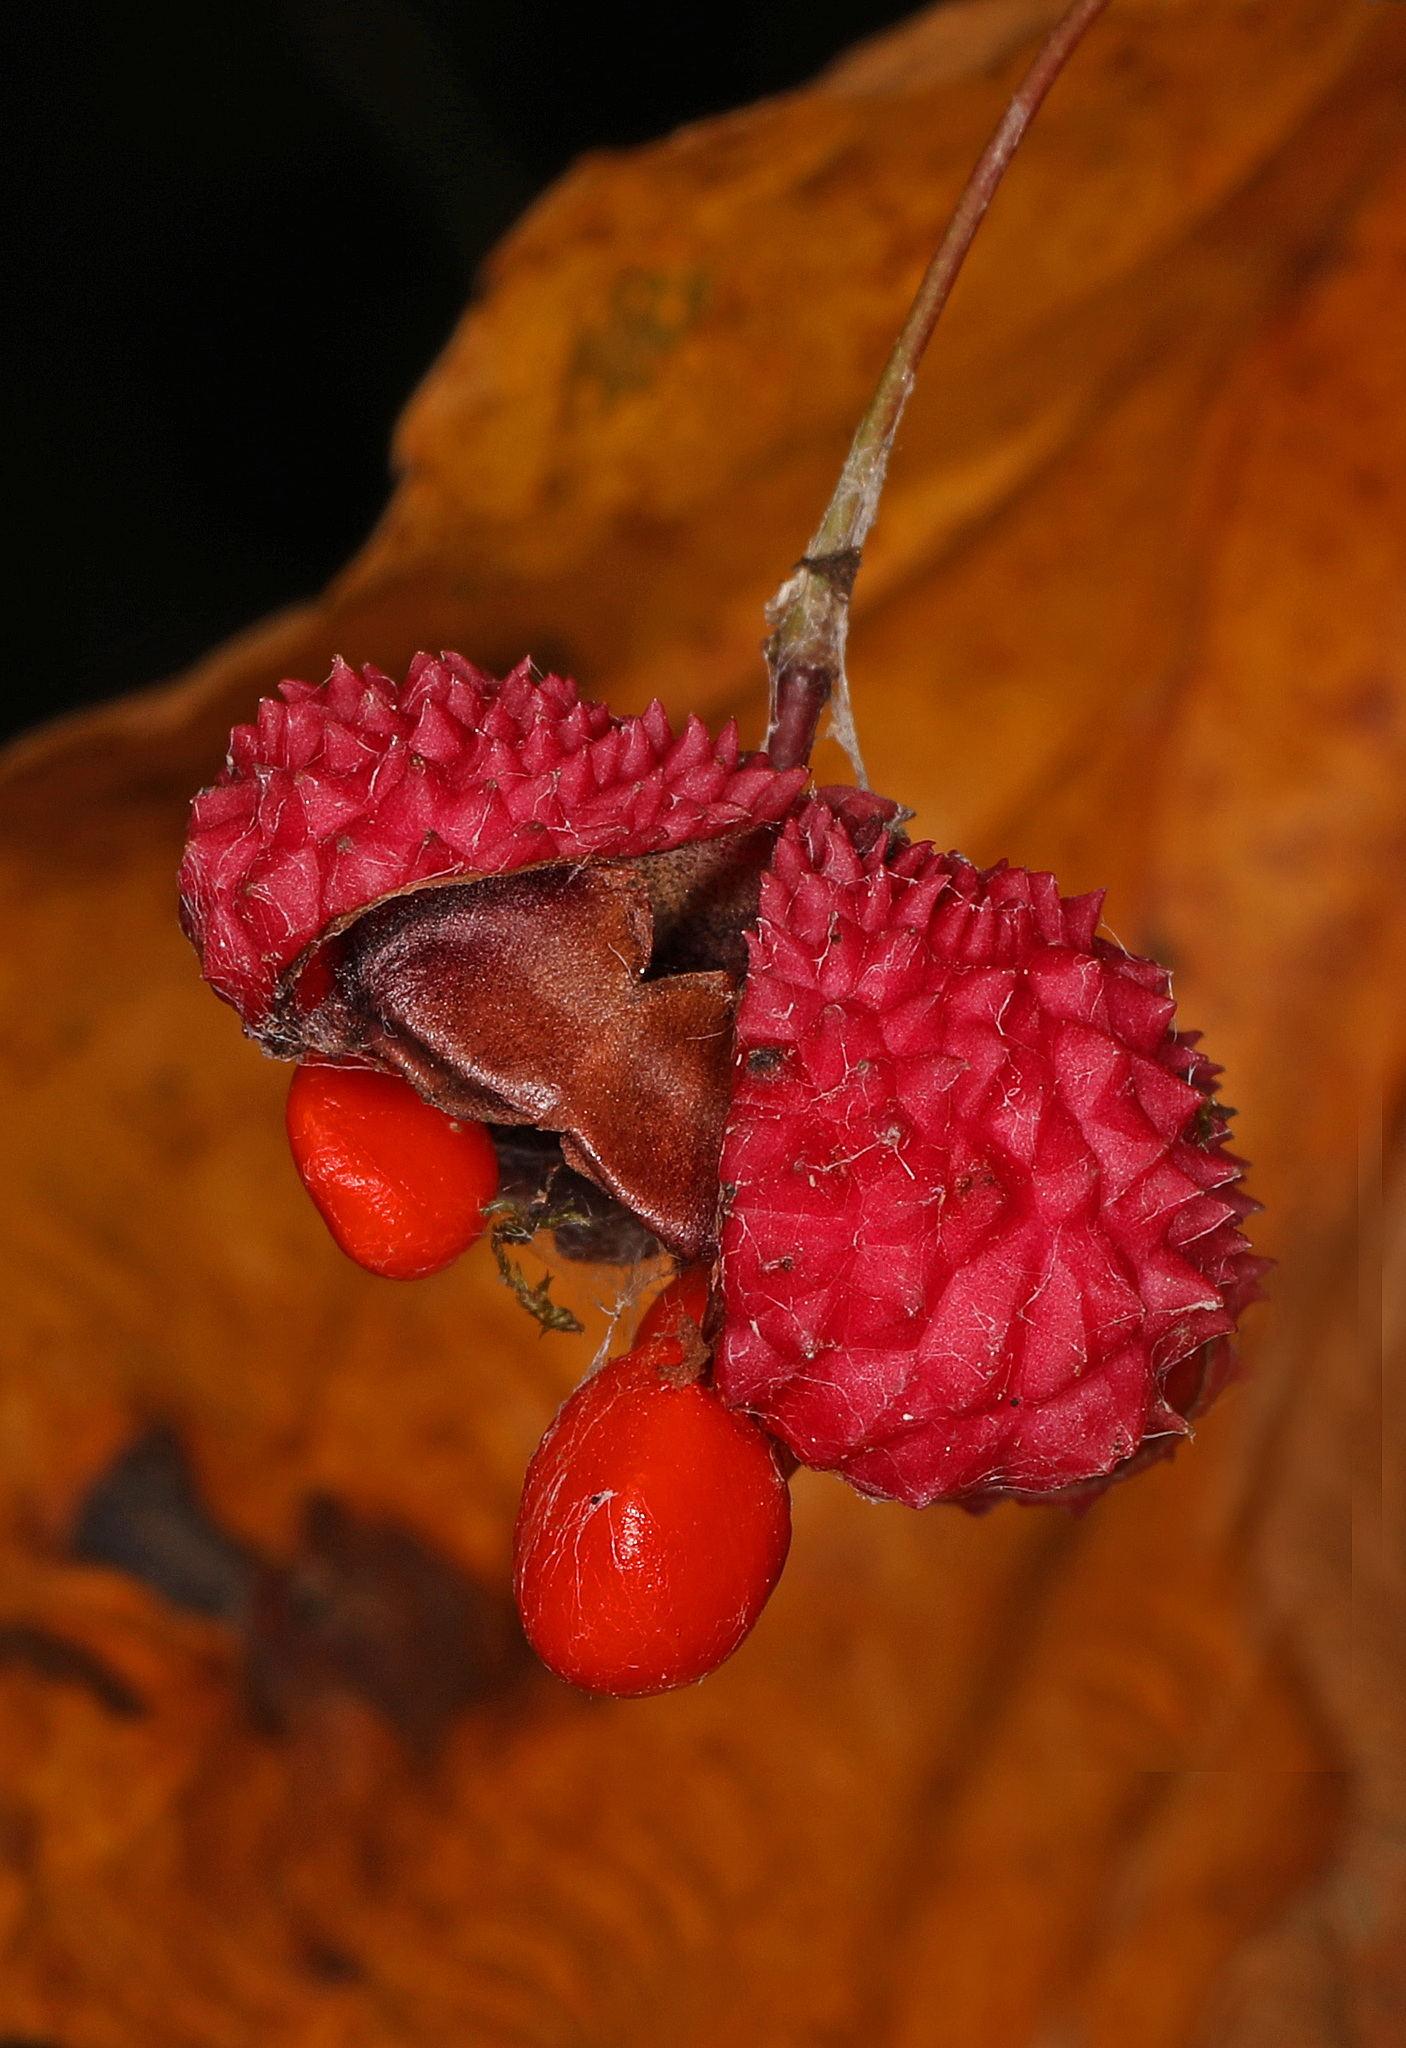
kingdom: Plantae
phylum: Tracheophyta
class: Magnoliopsida
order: Celastrales
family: Celastraceae
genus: Euonymus
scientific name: Euonymus americanus
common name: Bursting-heart
